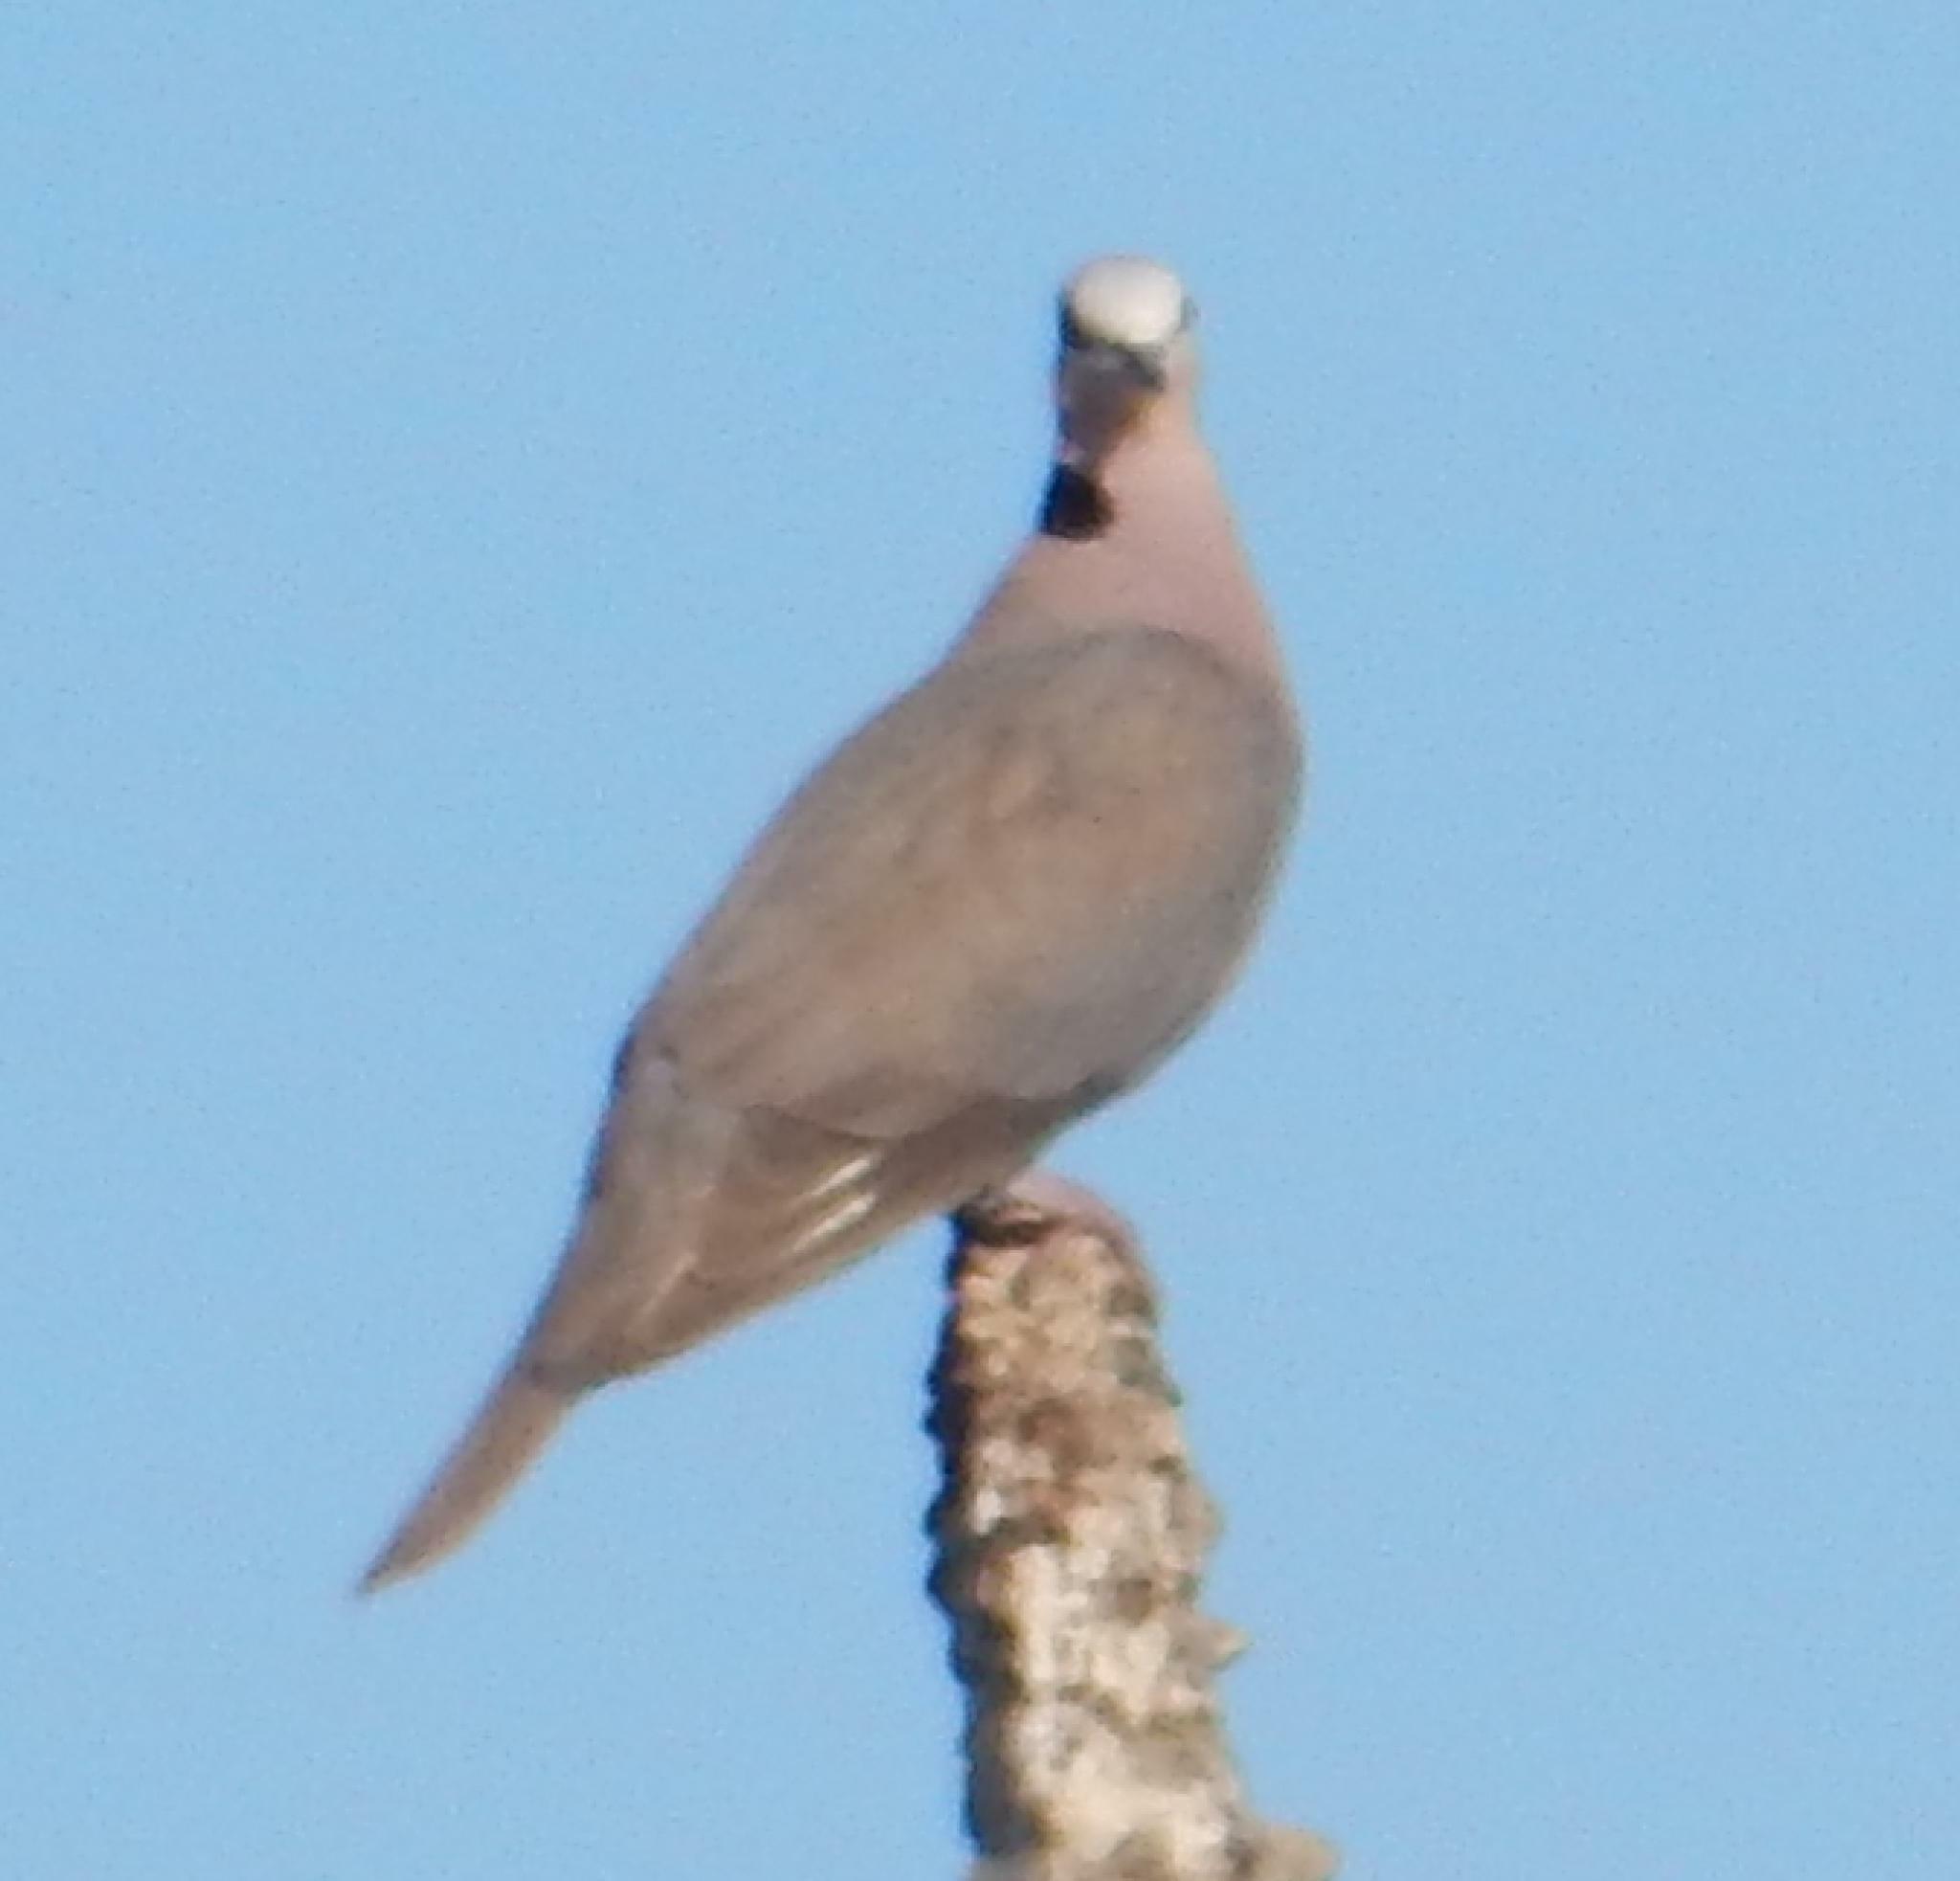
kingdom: Animalia
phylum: Chordata
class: Aves
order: Columbiformes
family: Columbidae
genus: Streptopelia
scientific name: Streptopelia semitorquata
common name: Red-eyed dove
